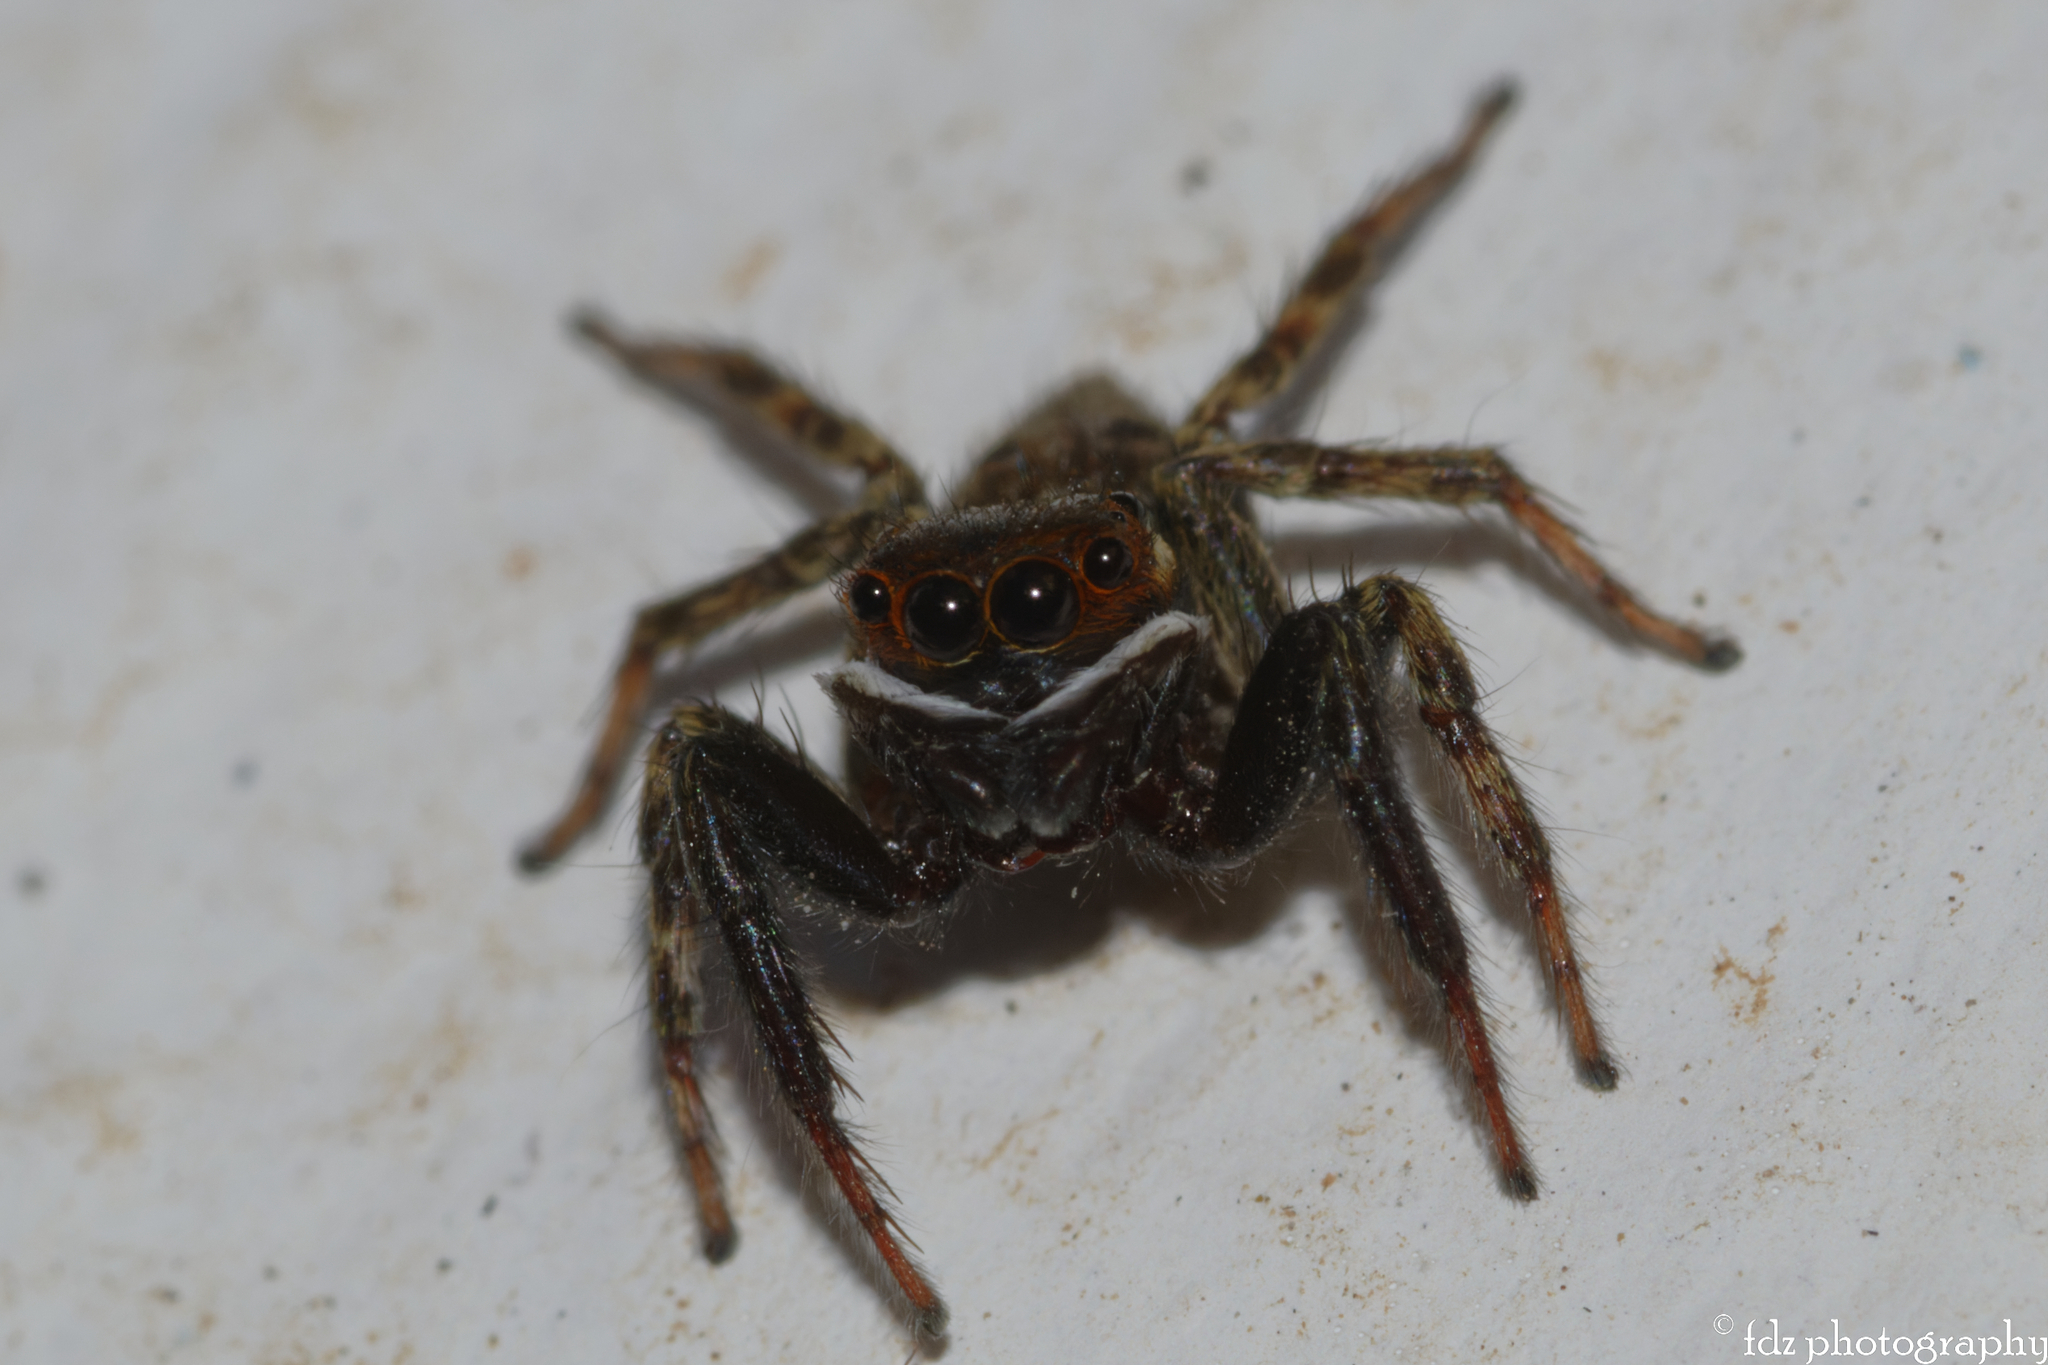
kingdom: Animalia
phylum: Arthropoda
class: Arachnida
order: Araneae
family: Salticidae
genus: Hasarius
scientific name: Hasarius adansoni
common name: Jumping spider
